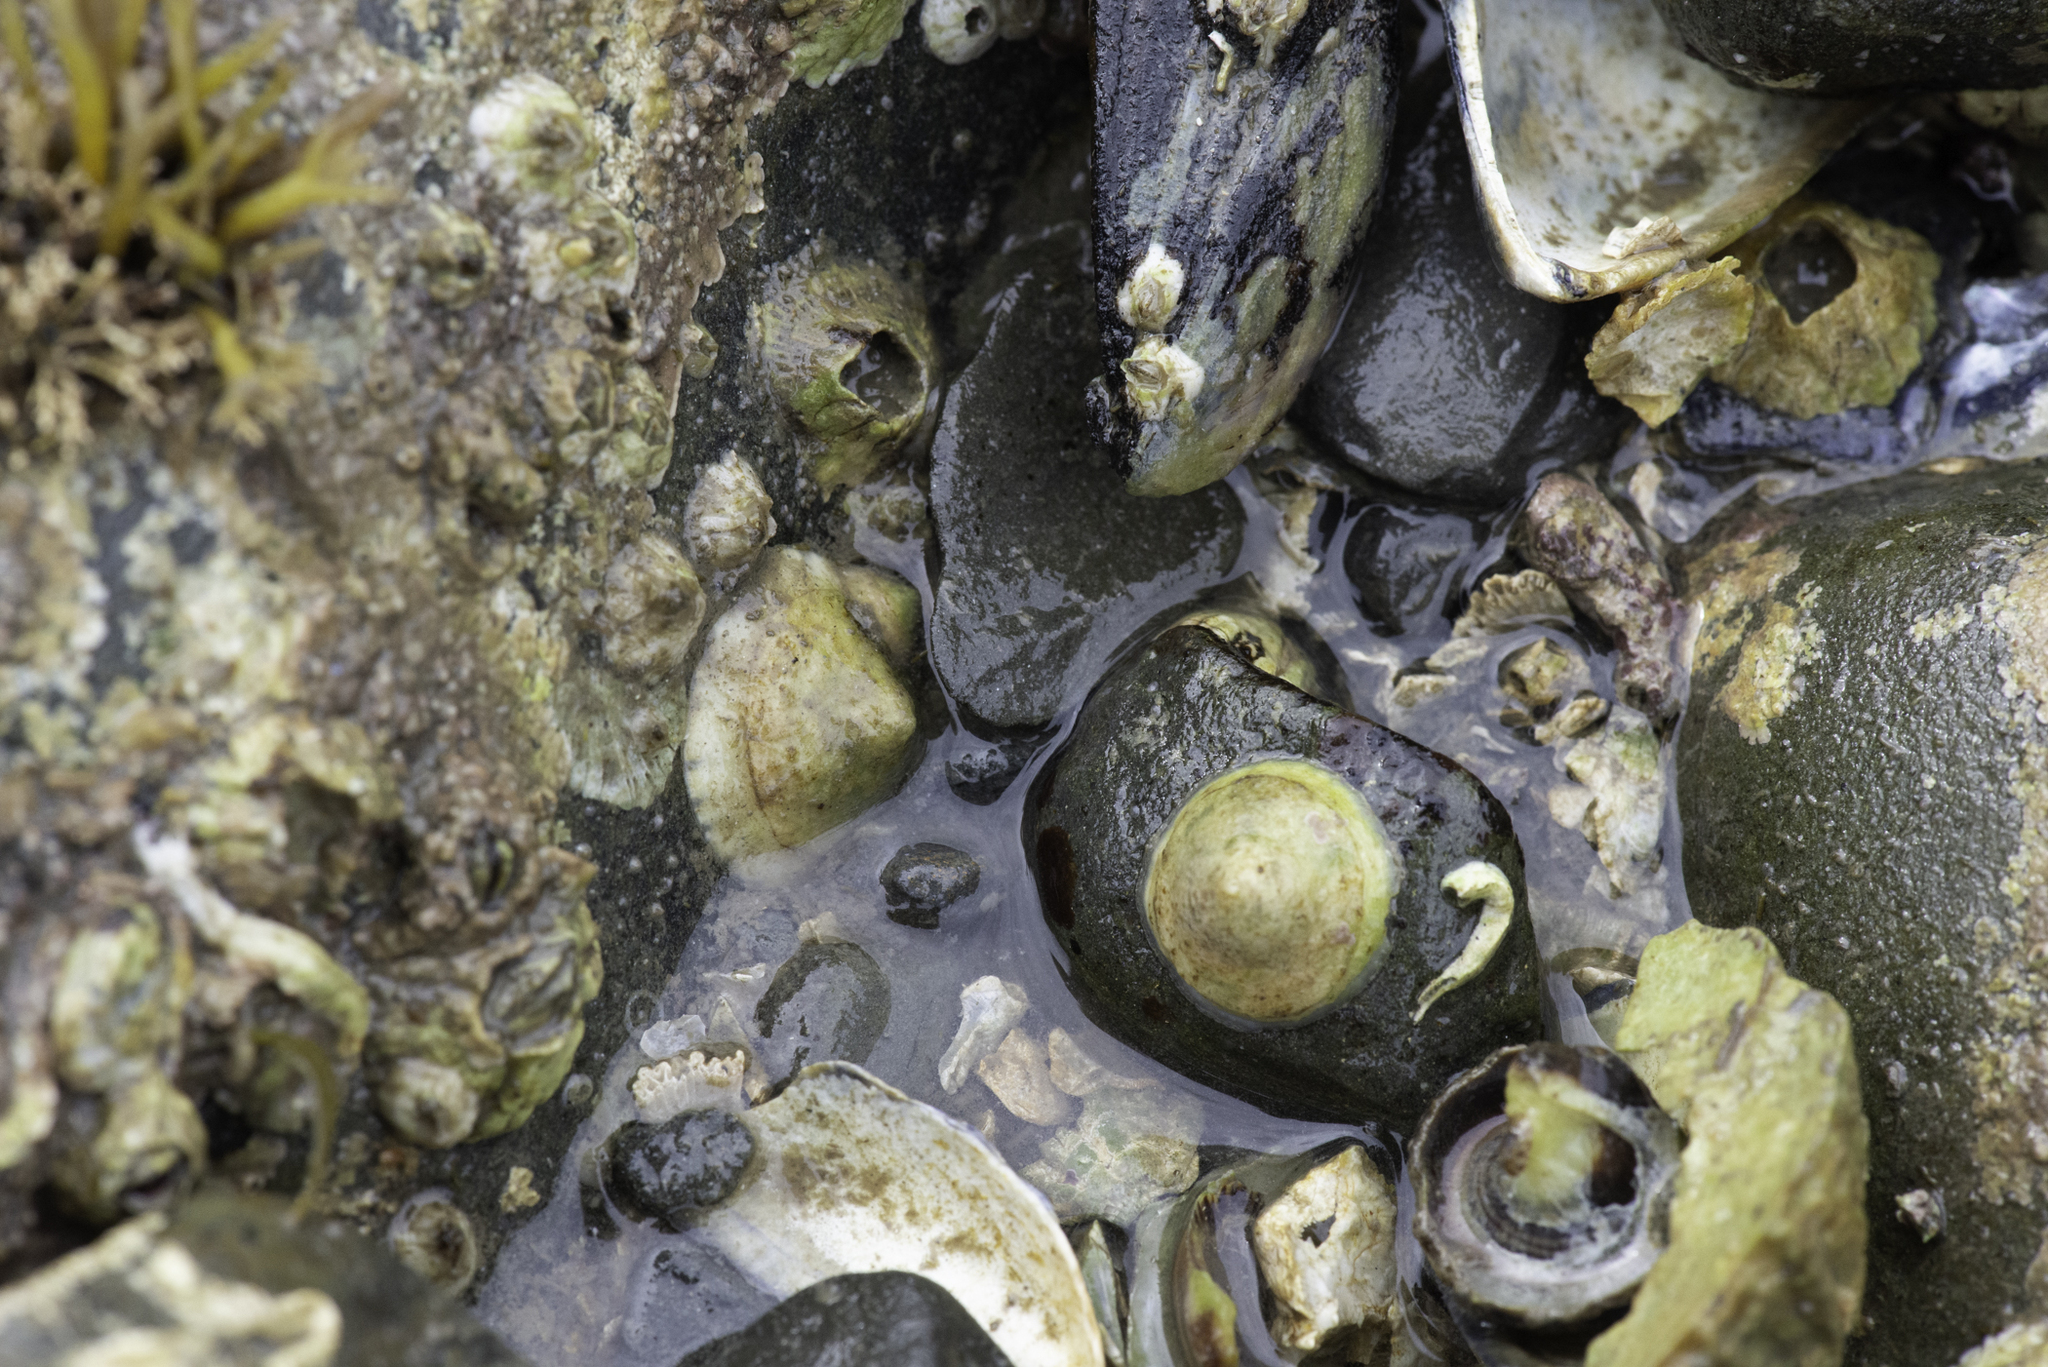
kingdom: Animalia
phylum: Mollusca
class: Gastropoda
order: Littorinimorpha
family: Calyptraeidae
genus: Calyptraea
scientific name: Calyptraea chinensis
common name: Chinaman's hat
